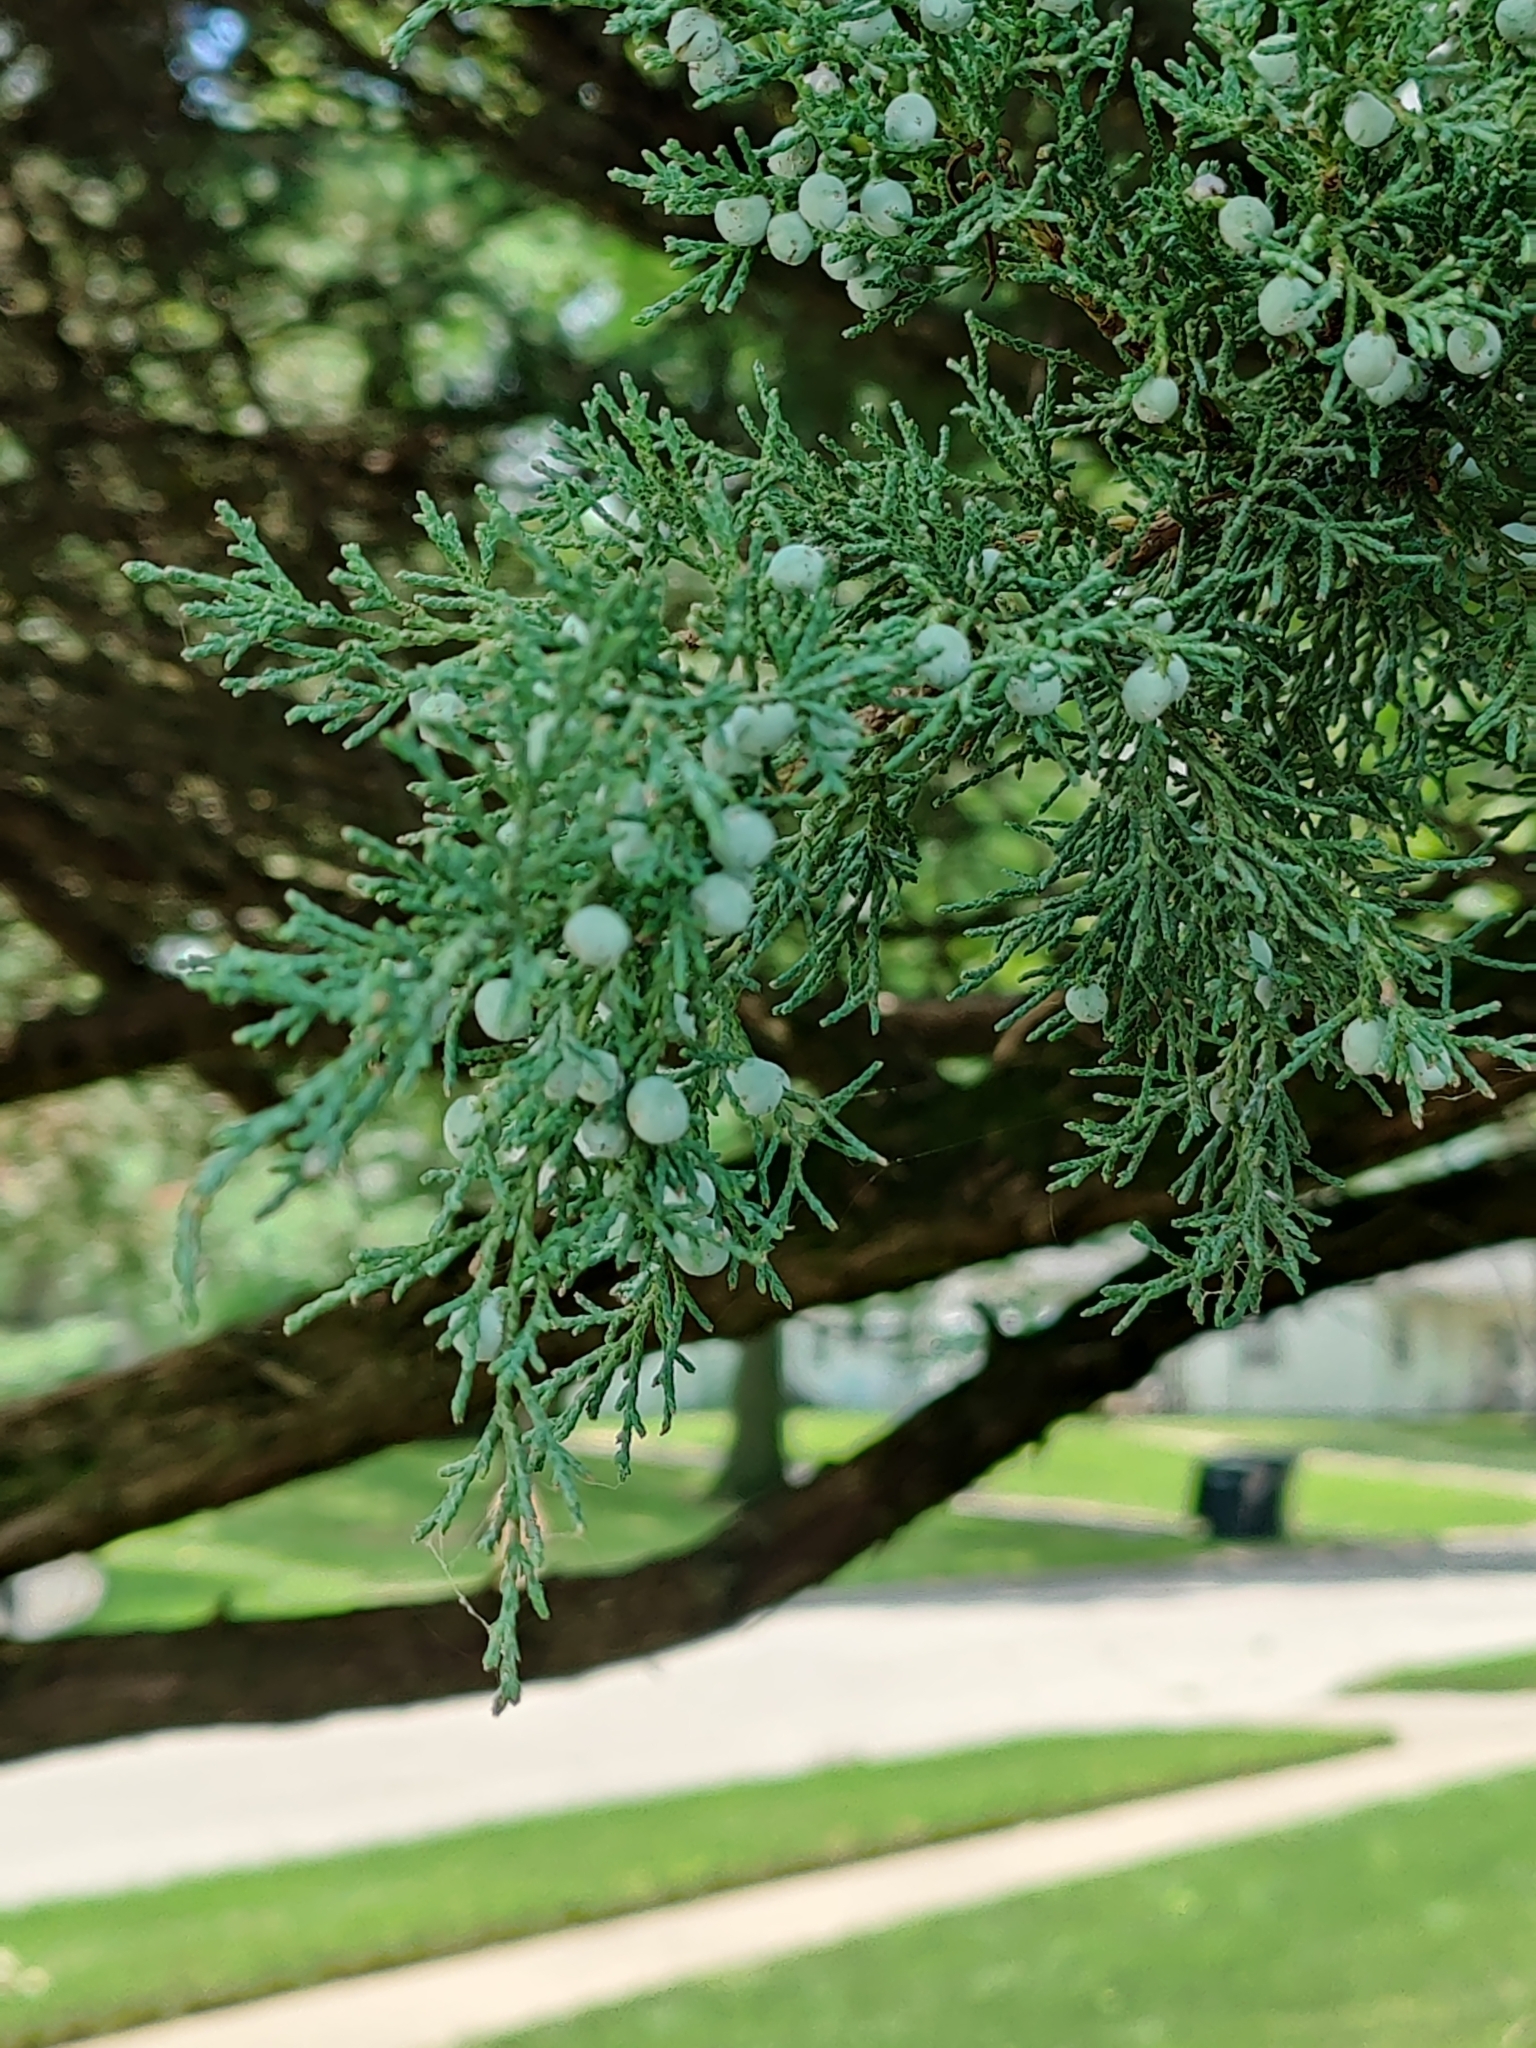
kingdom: Plantae
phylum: Tracheophyta
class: Pinopsida
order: Pinales
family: Cupressaceae
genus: Juniperus
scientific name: Juniperus virginiana
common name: Red juniper
